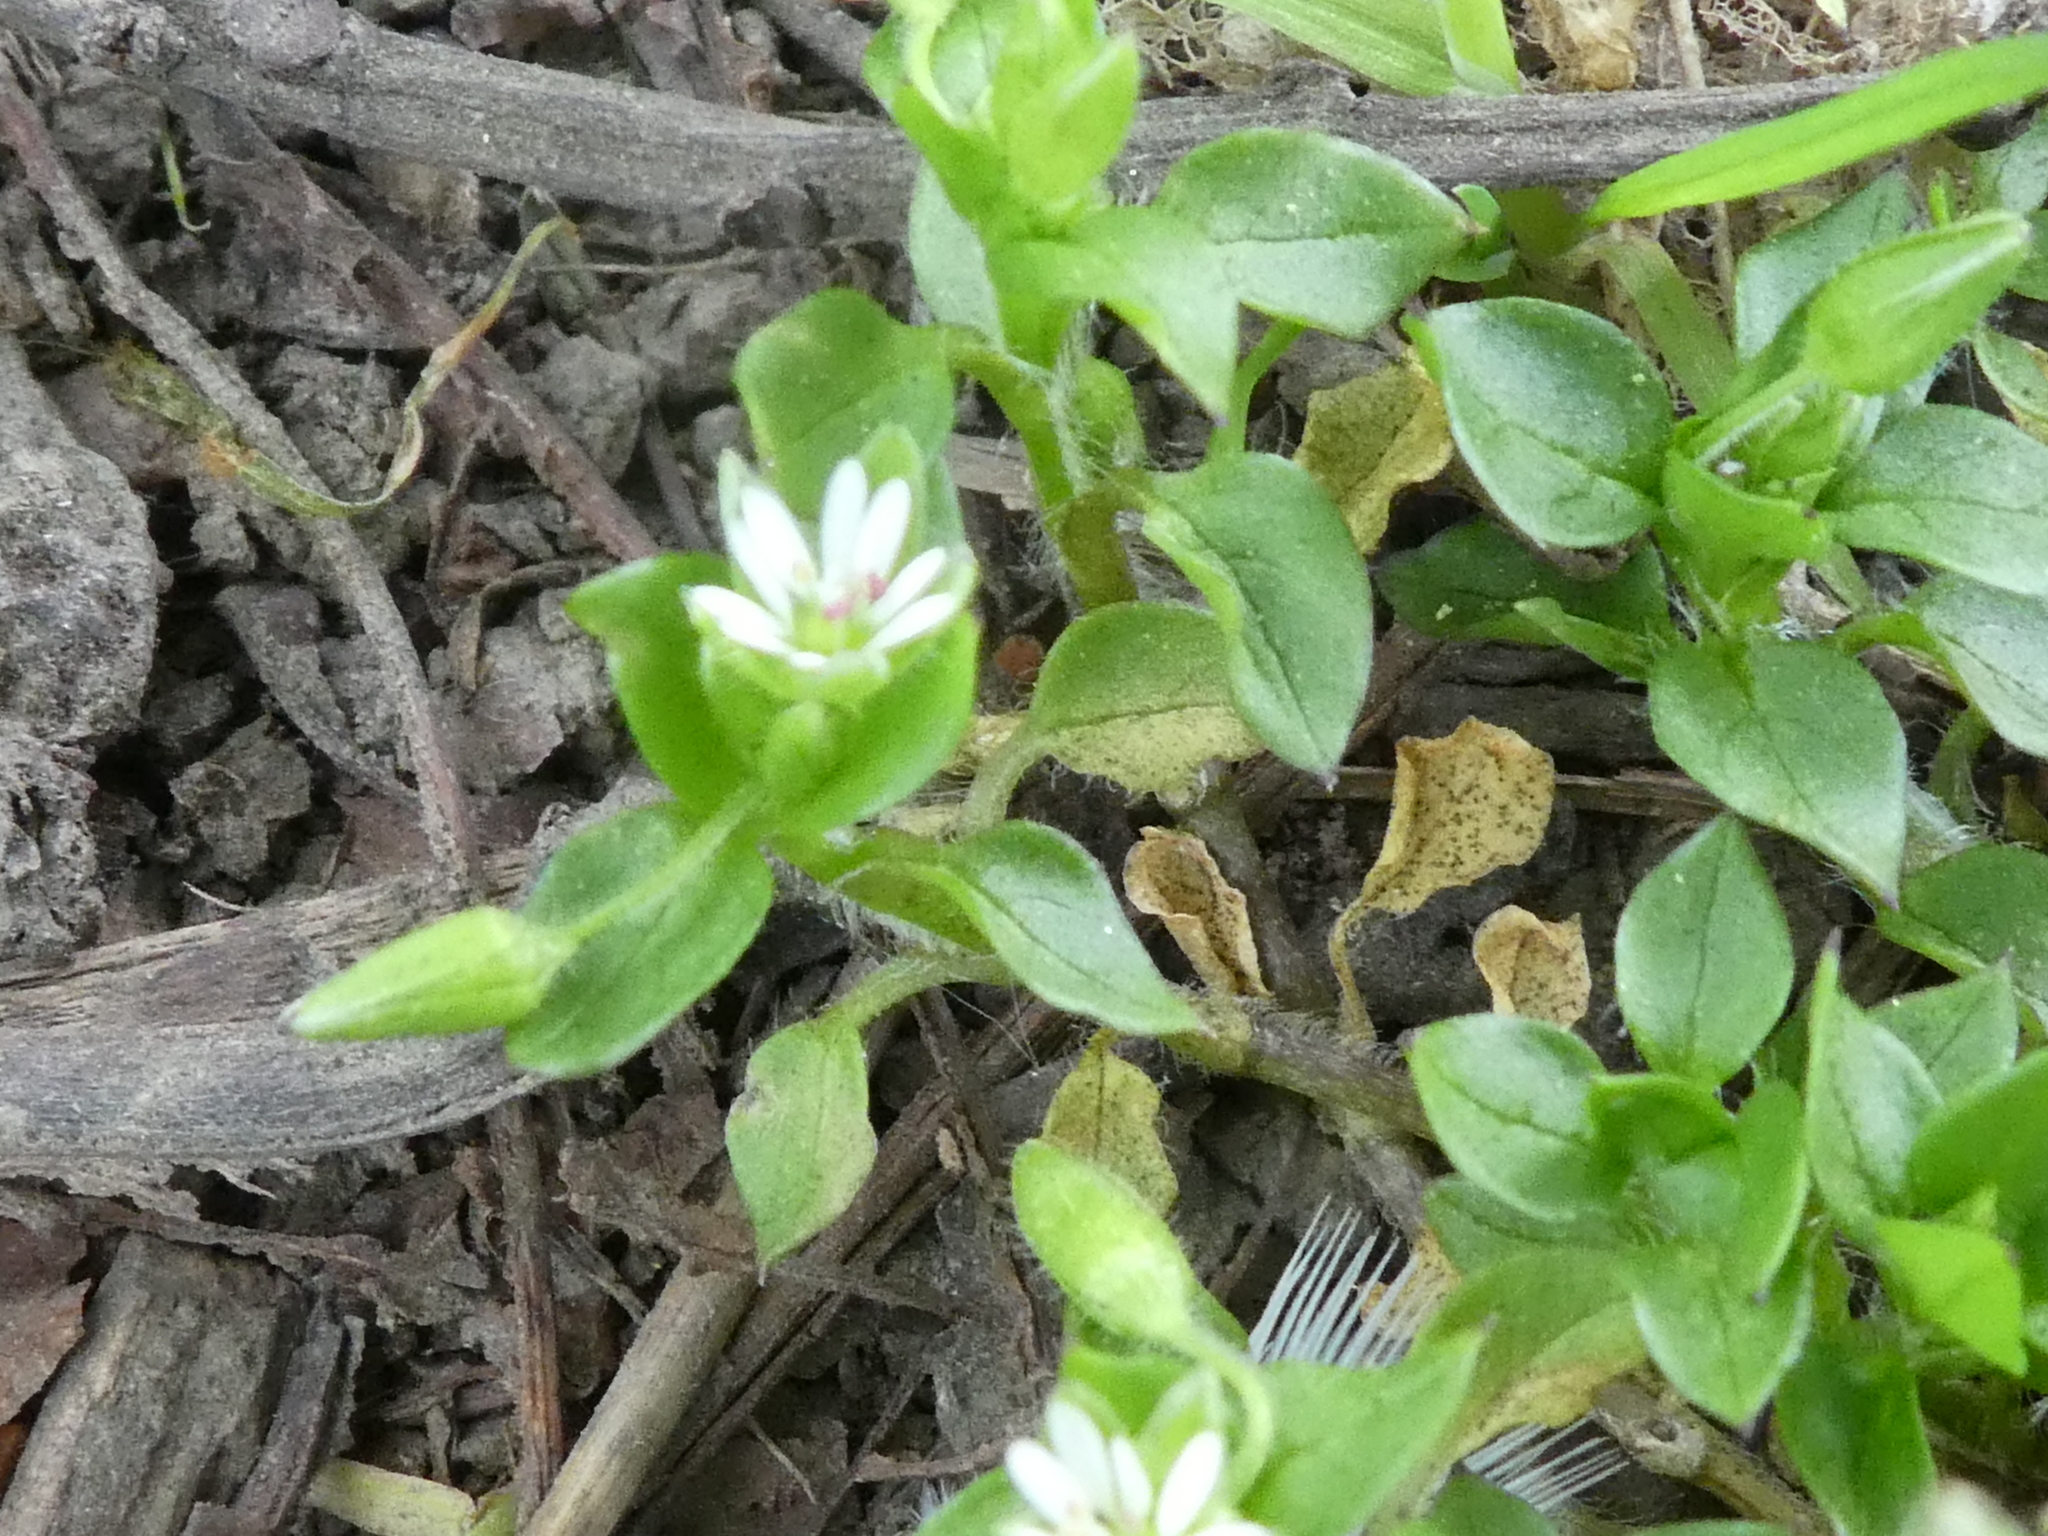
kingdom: Plantae
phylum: Tracheophyta
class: Magnoliopsida
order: Caryophyllales
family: Caryophyllaceae
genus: Stellaria
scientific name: Stellaria media
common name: Common chickweed
